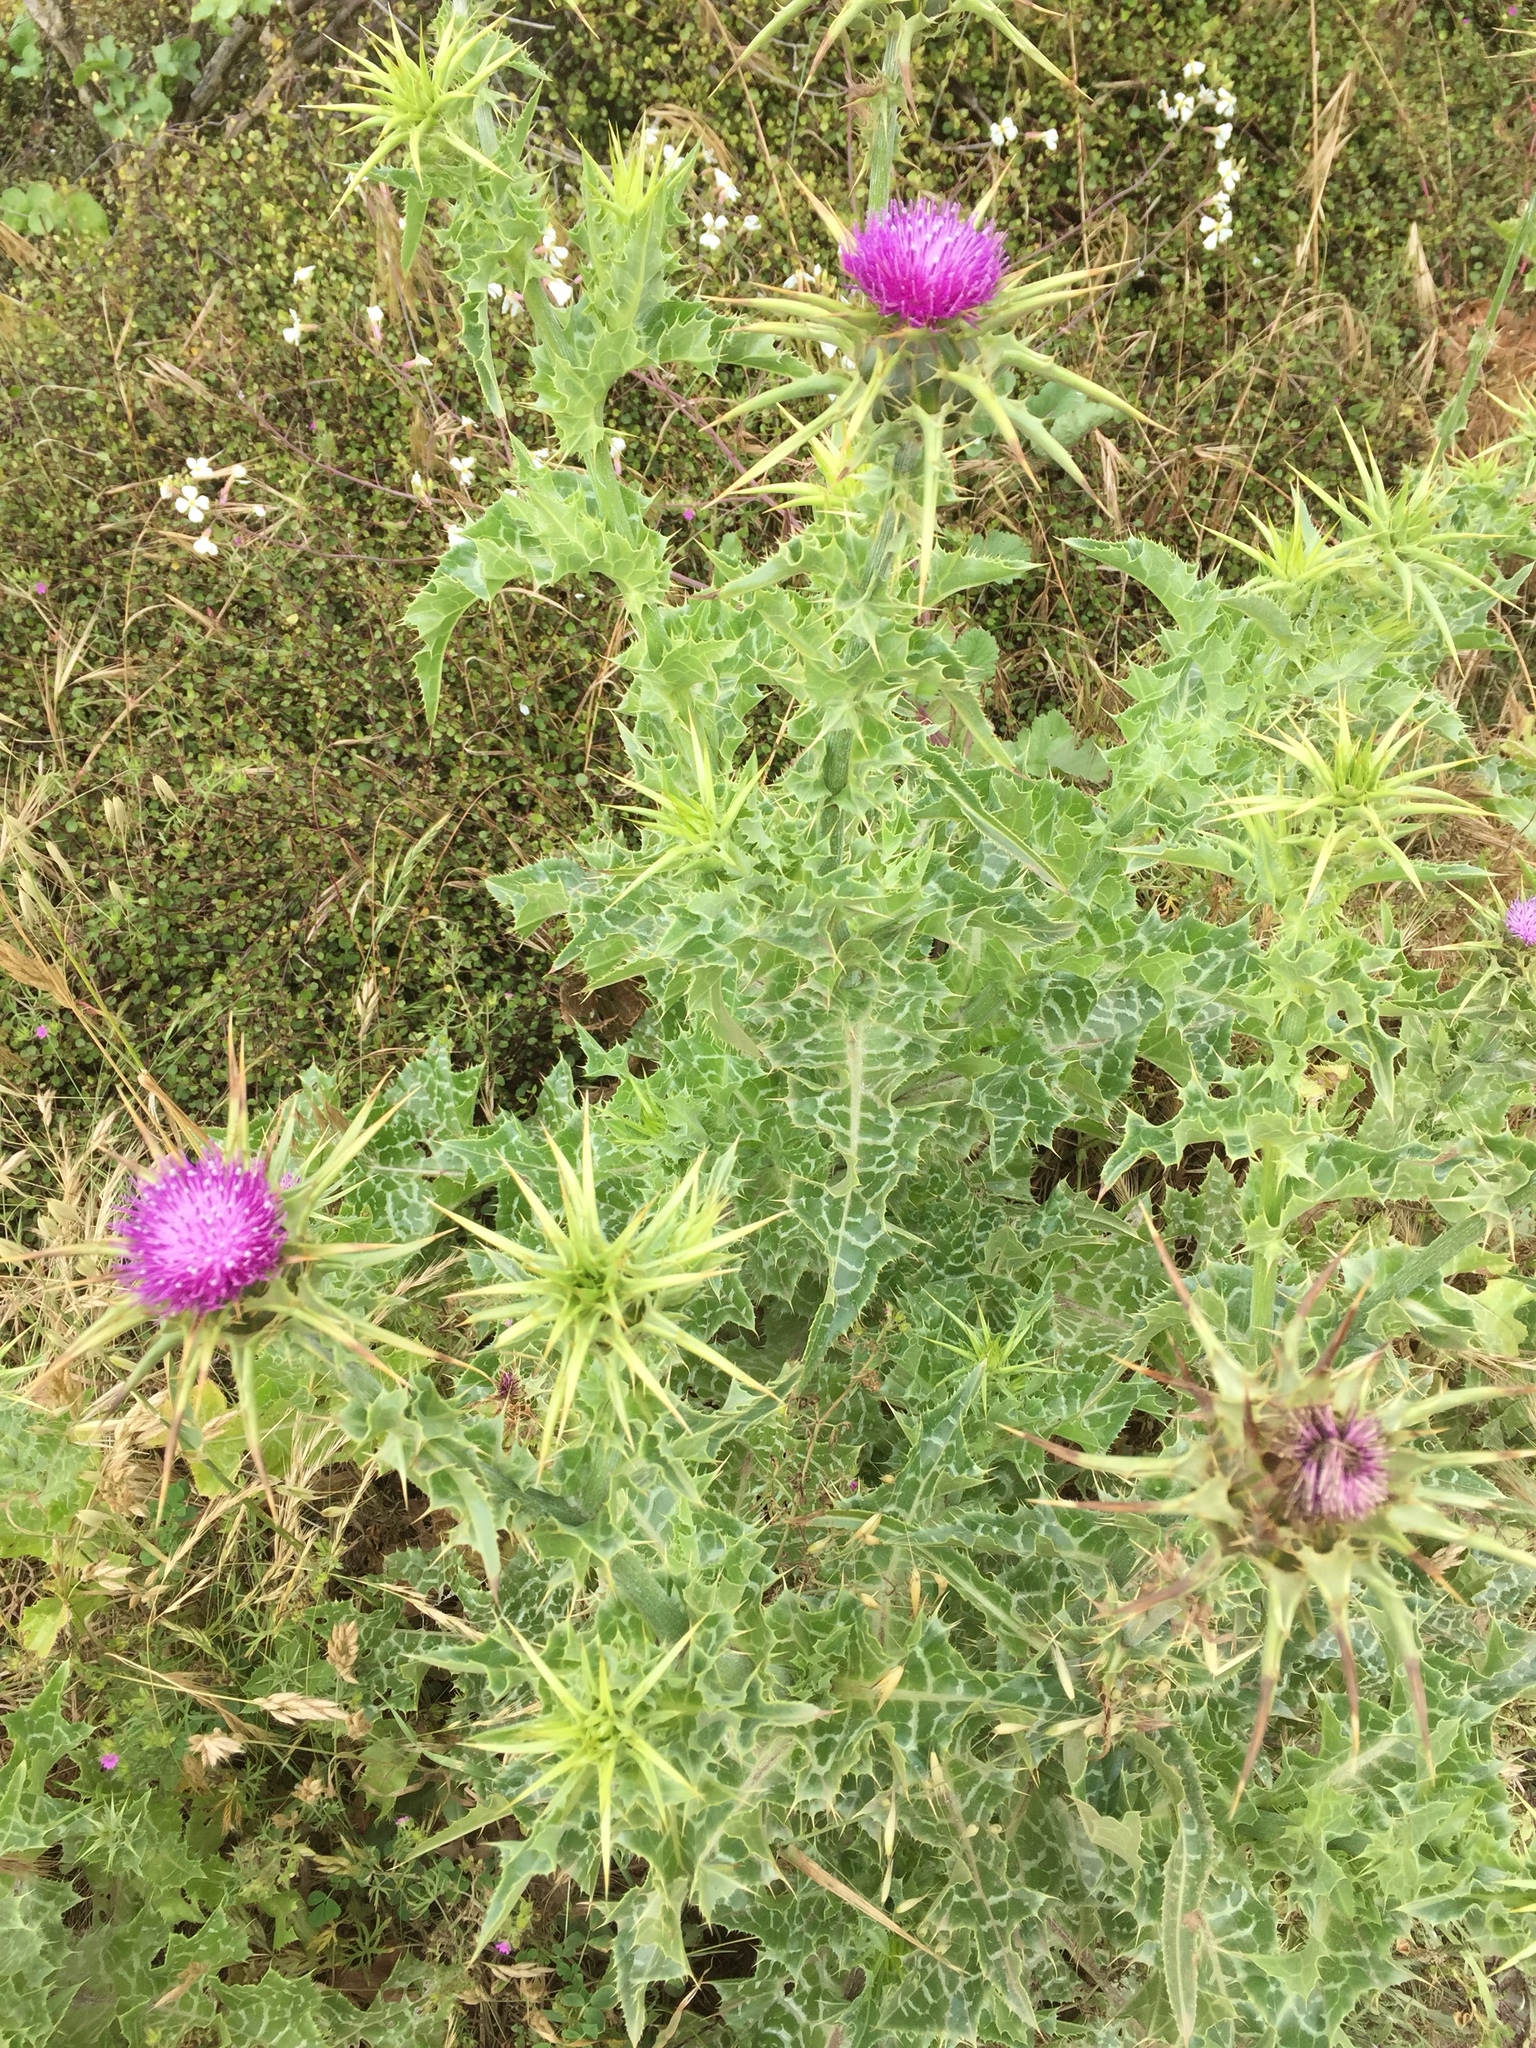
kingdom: Plantae
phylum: Tracheophyta
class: Magnoliopsida
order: Asterales
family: Asteraceae
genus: Silybum
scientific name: Silybum marianum
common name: Milk thistle
